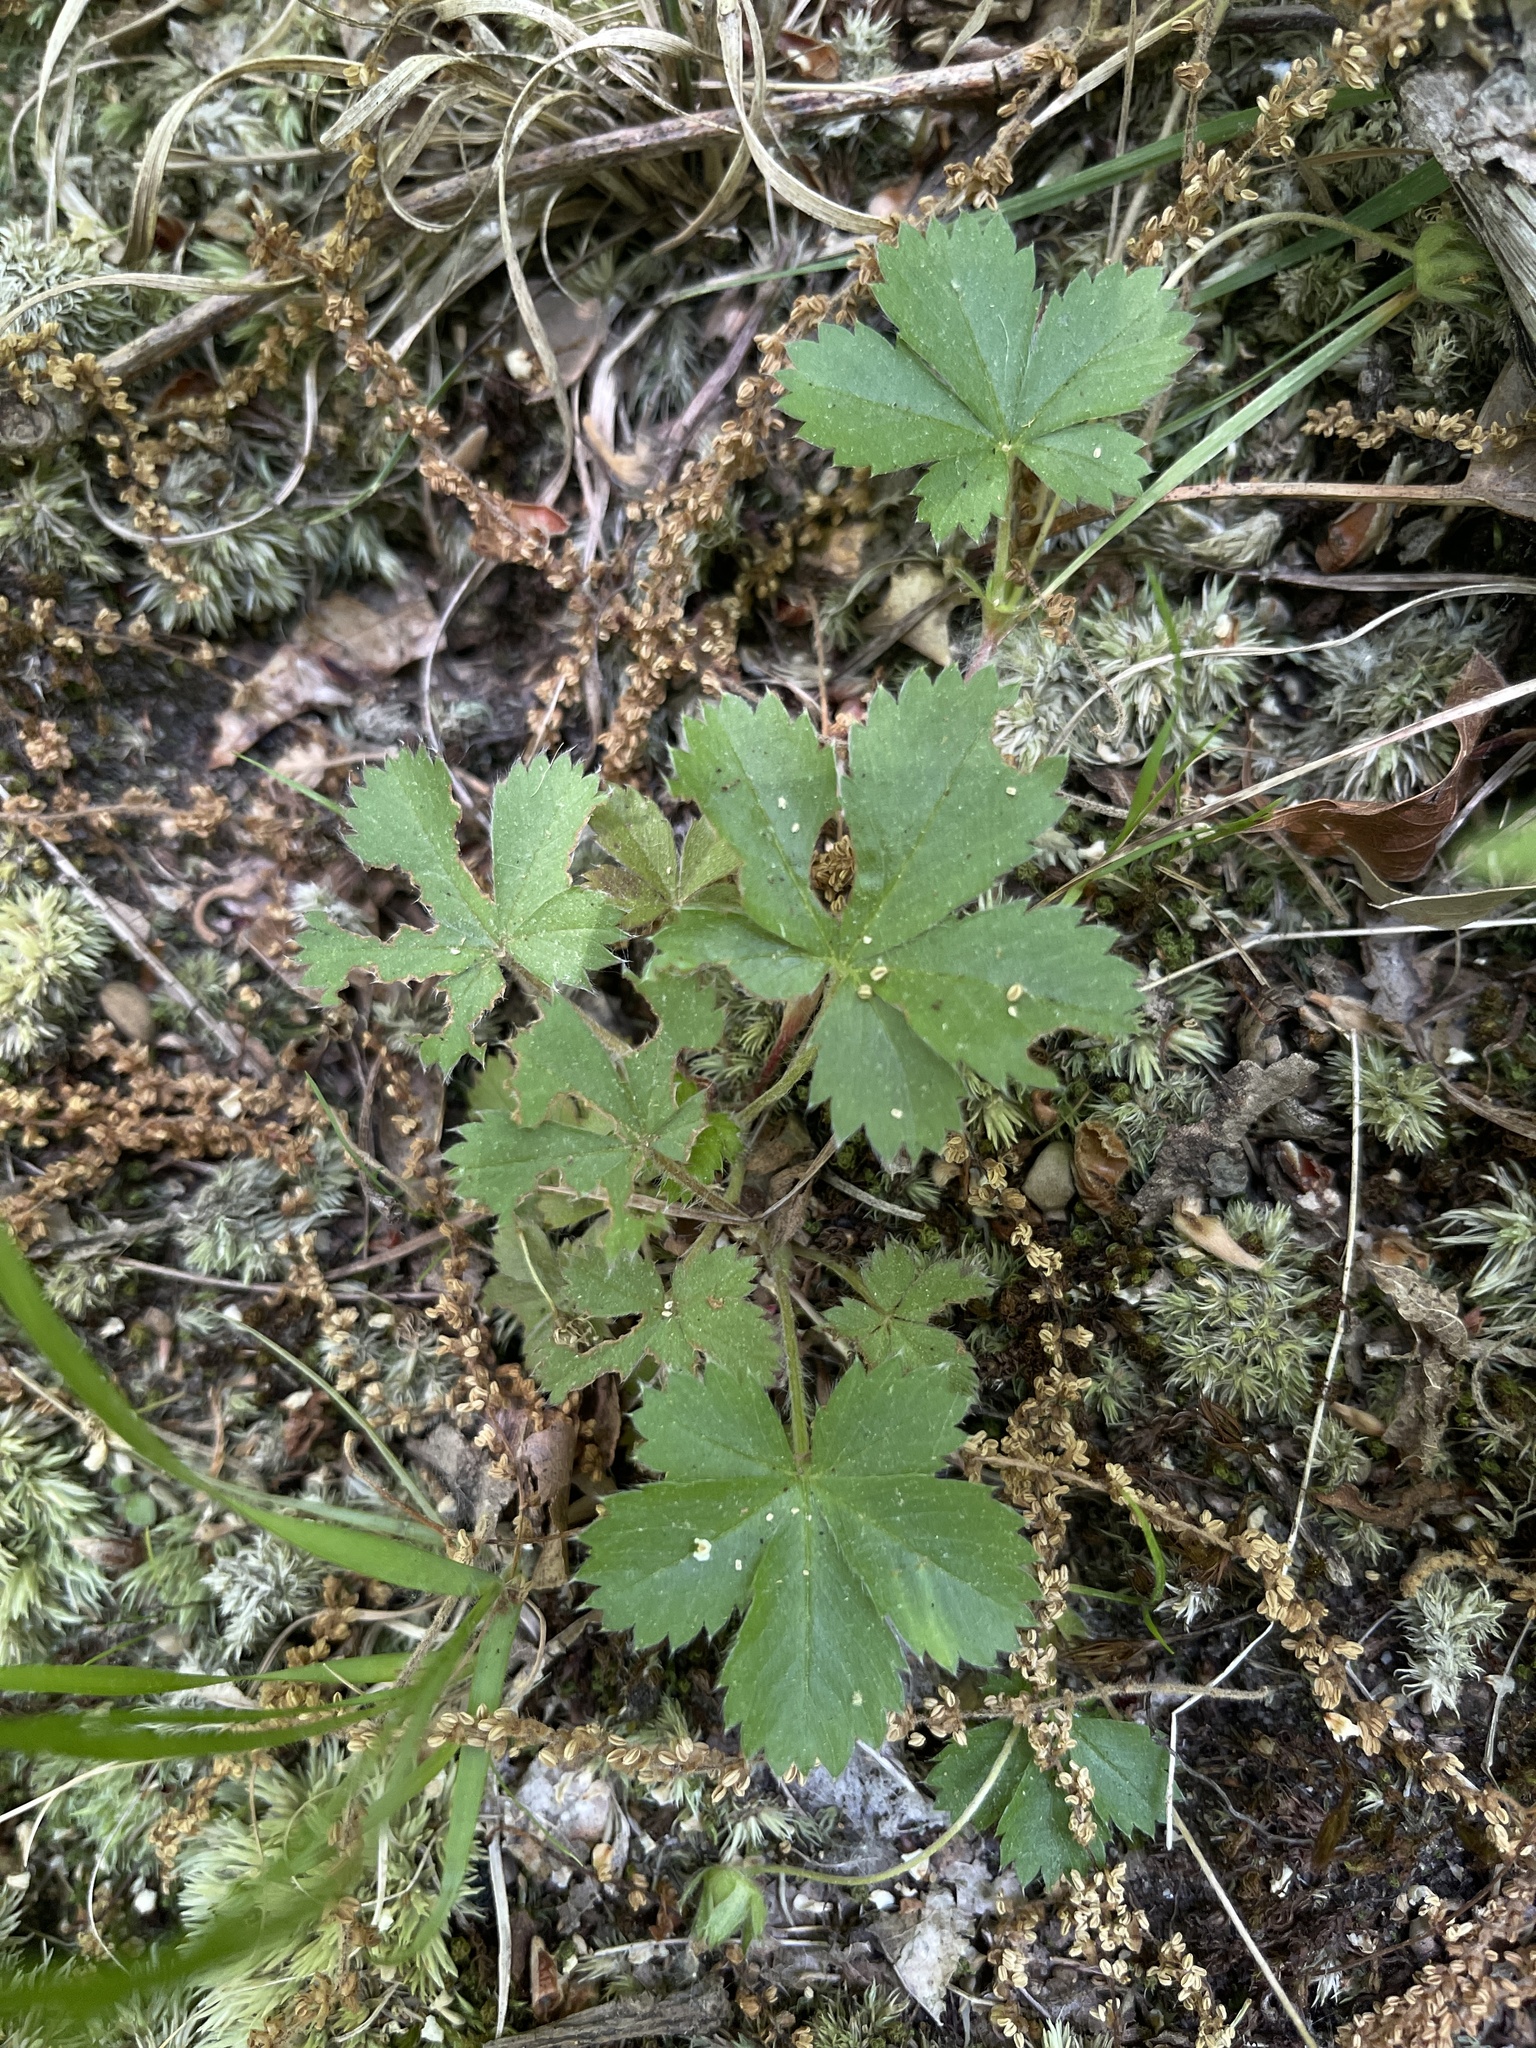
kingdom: Plantae
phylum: Tracheophyta
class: Magnoliopsida
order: Rosales
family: Rosaceae
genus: Potentilla
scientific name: Potentilla canadensis
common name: Canada cinquefoil
